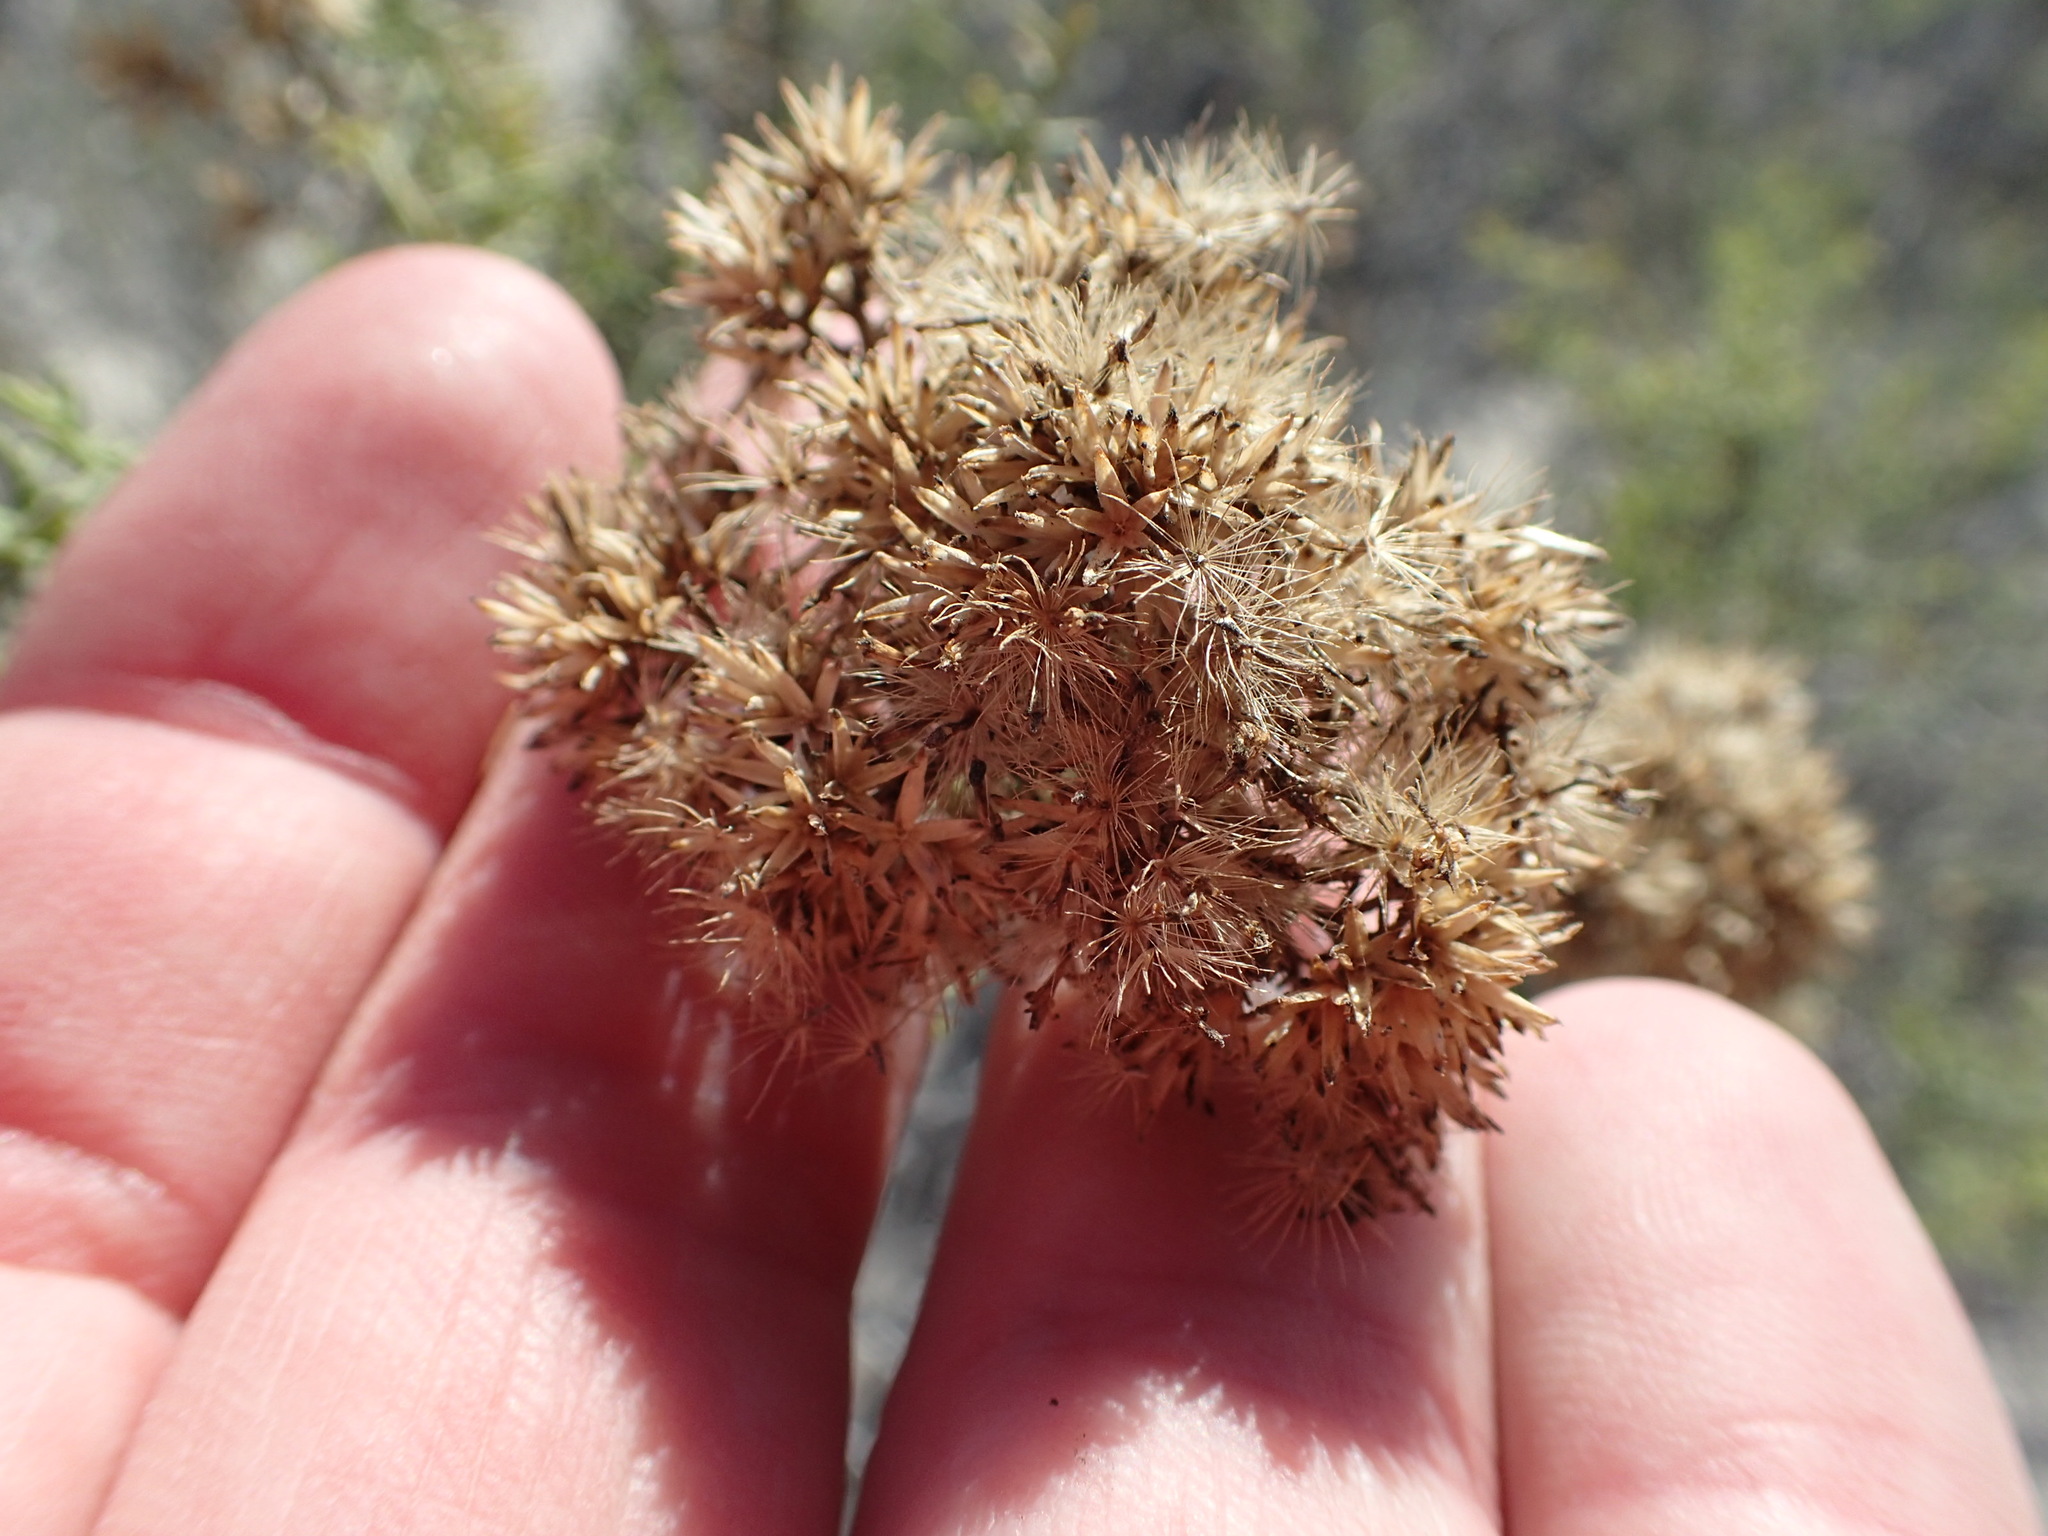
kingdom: Plantae
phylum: Tracheophyta
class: Magnoliopsida
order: Asterales
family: Asteraceae
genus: Gundlachia
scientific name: Gundlachia diffusa
